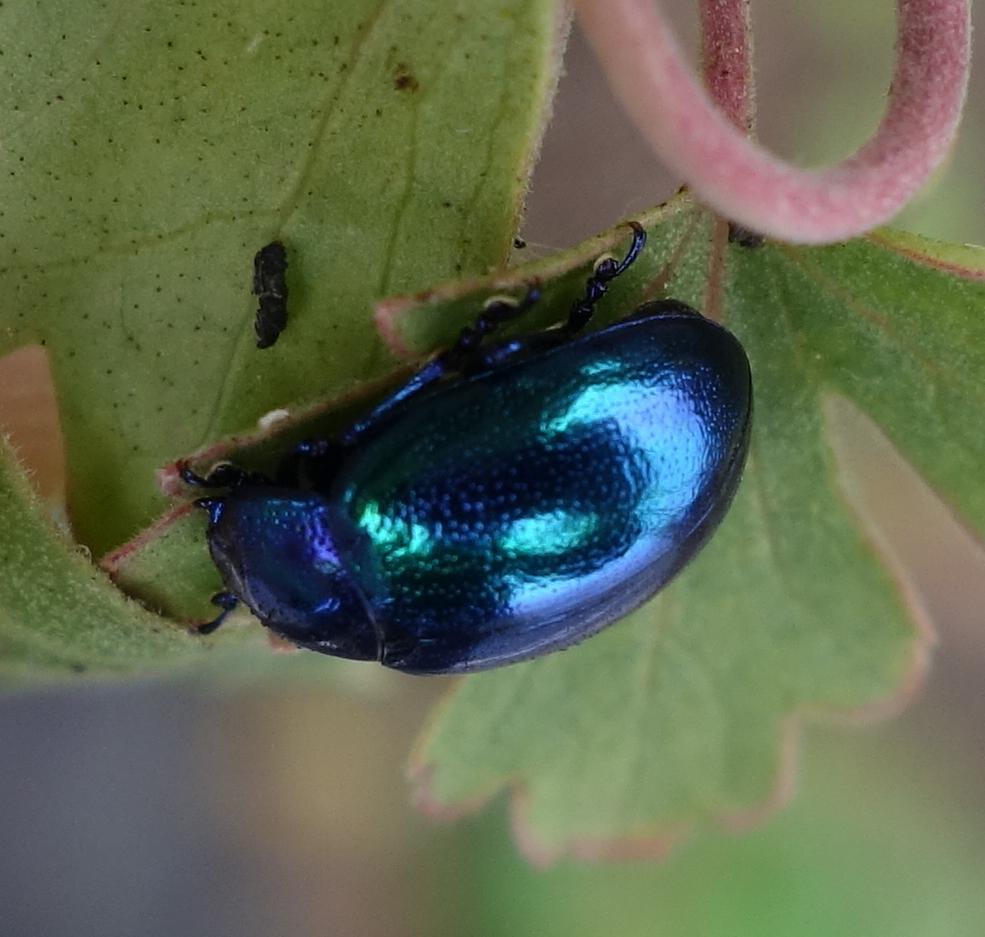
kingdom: Animalia
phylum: Arthropoda
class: Insecta
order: Coleoptera
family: Chrysomelidae
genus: Chrysolina
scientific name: Chrysolina coerulans
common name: Blue mint beetle
